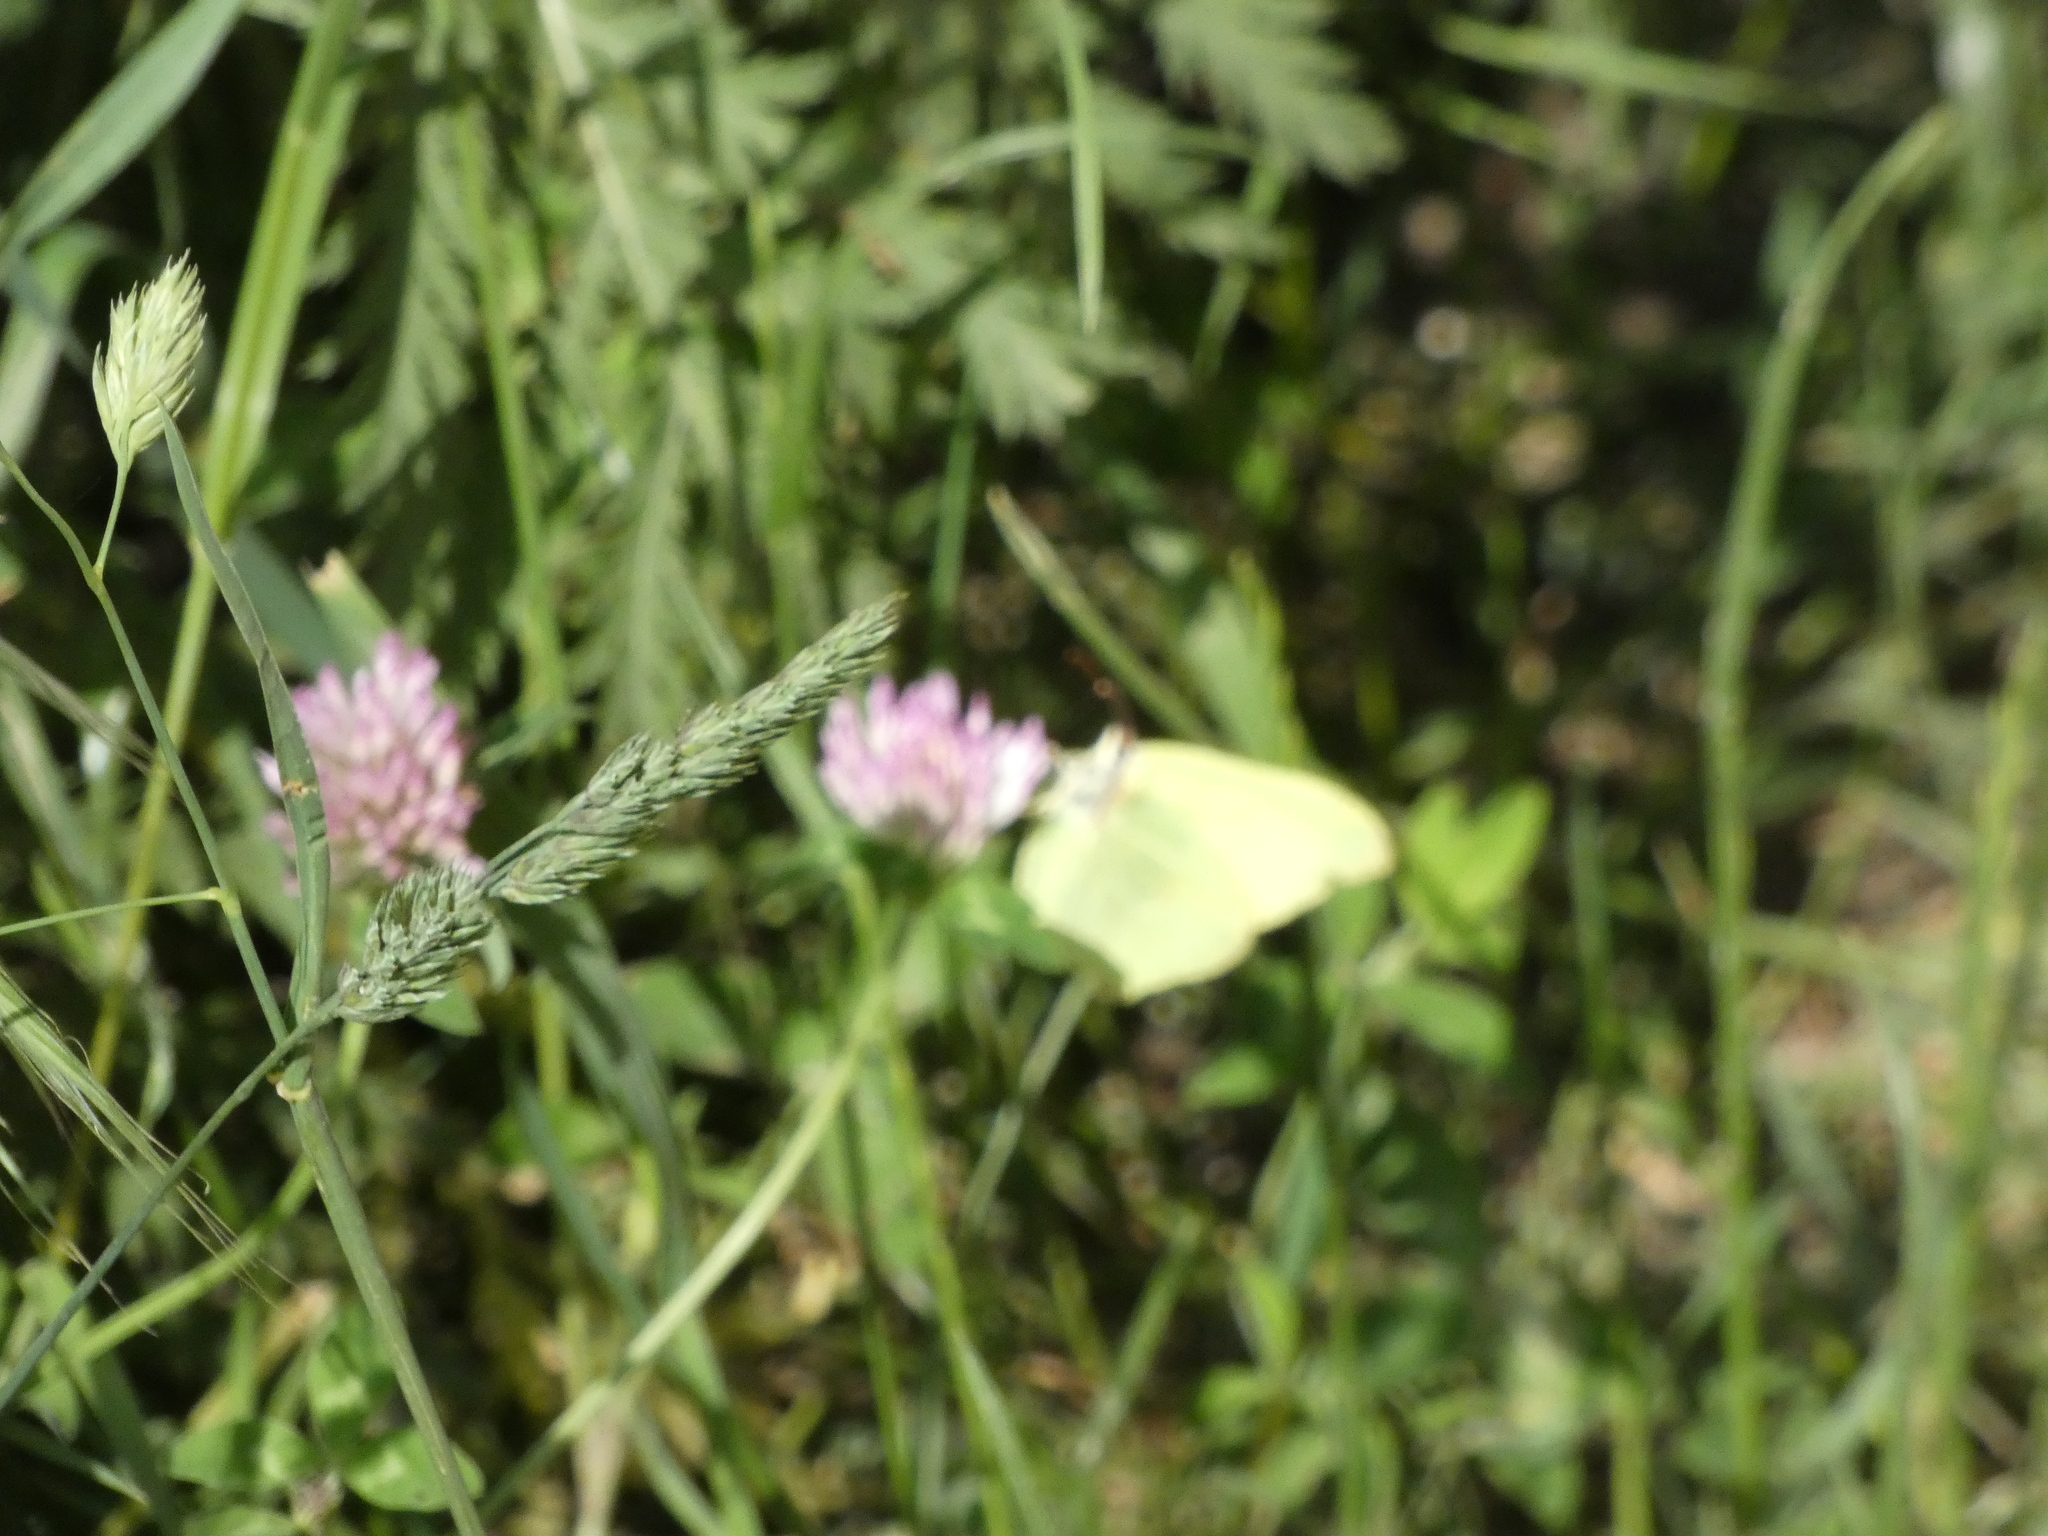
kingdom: Animalia
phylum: Arthropoda
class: Insecta
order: Lepidoptera
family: Pieridae
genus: Gonepteryx
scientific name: Gonepteryx rhamni
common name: Brimstone
